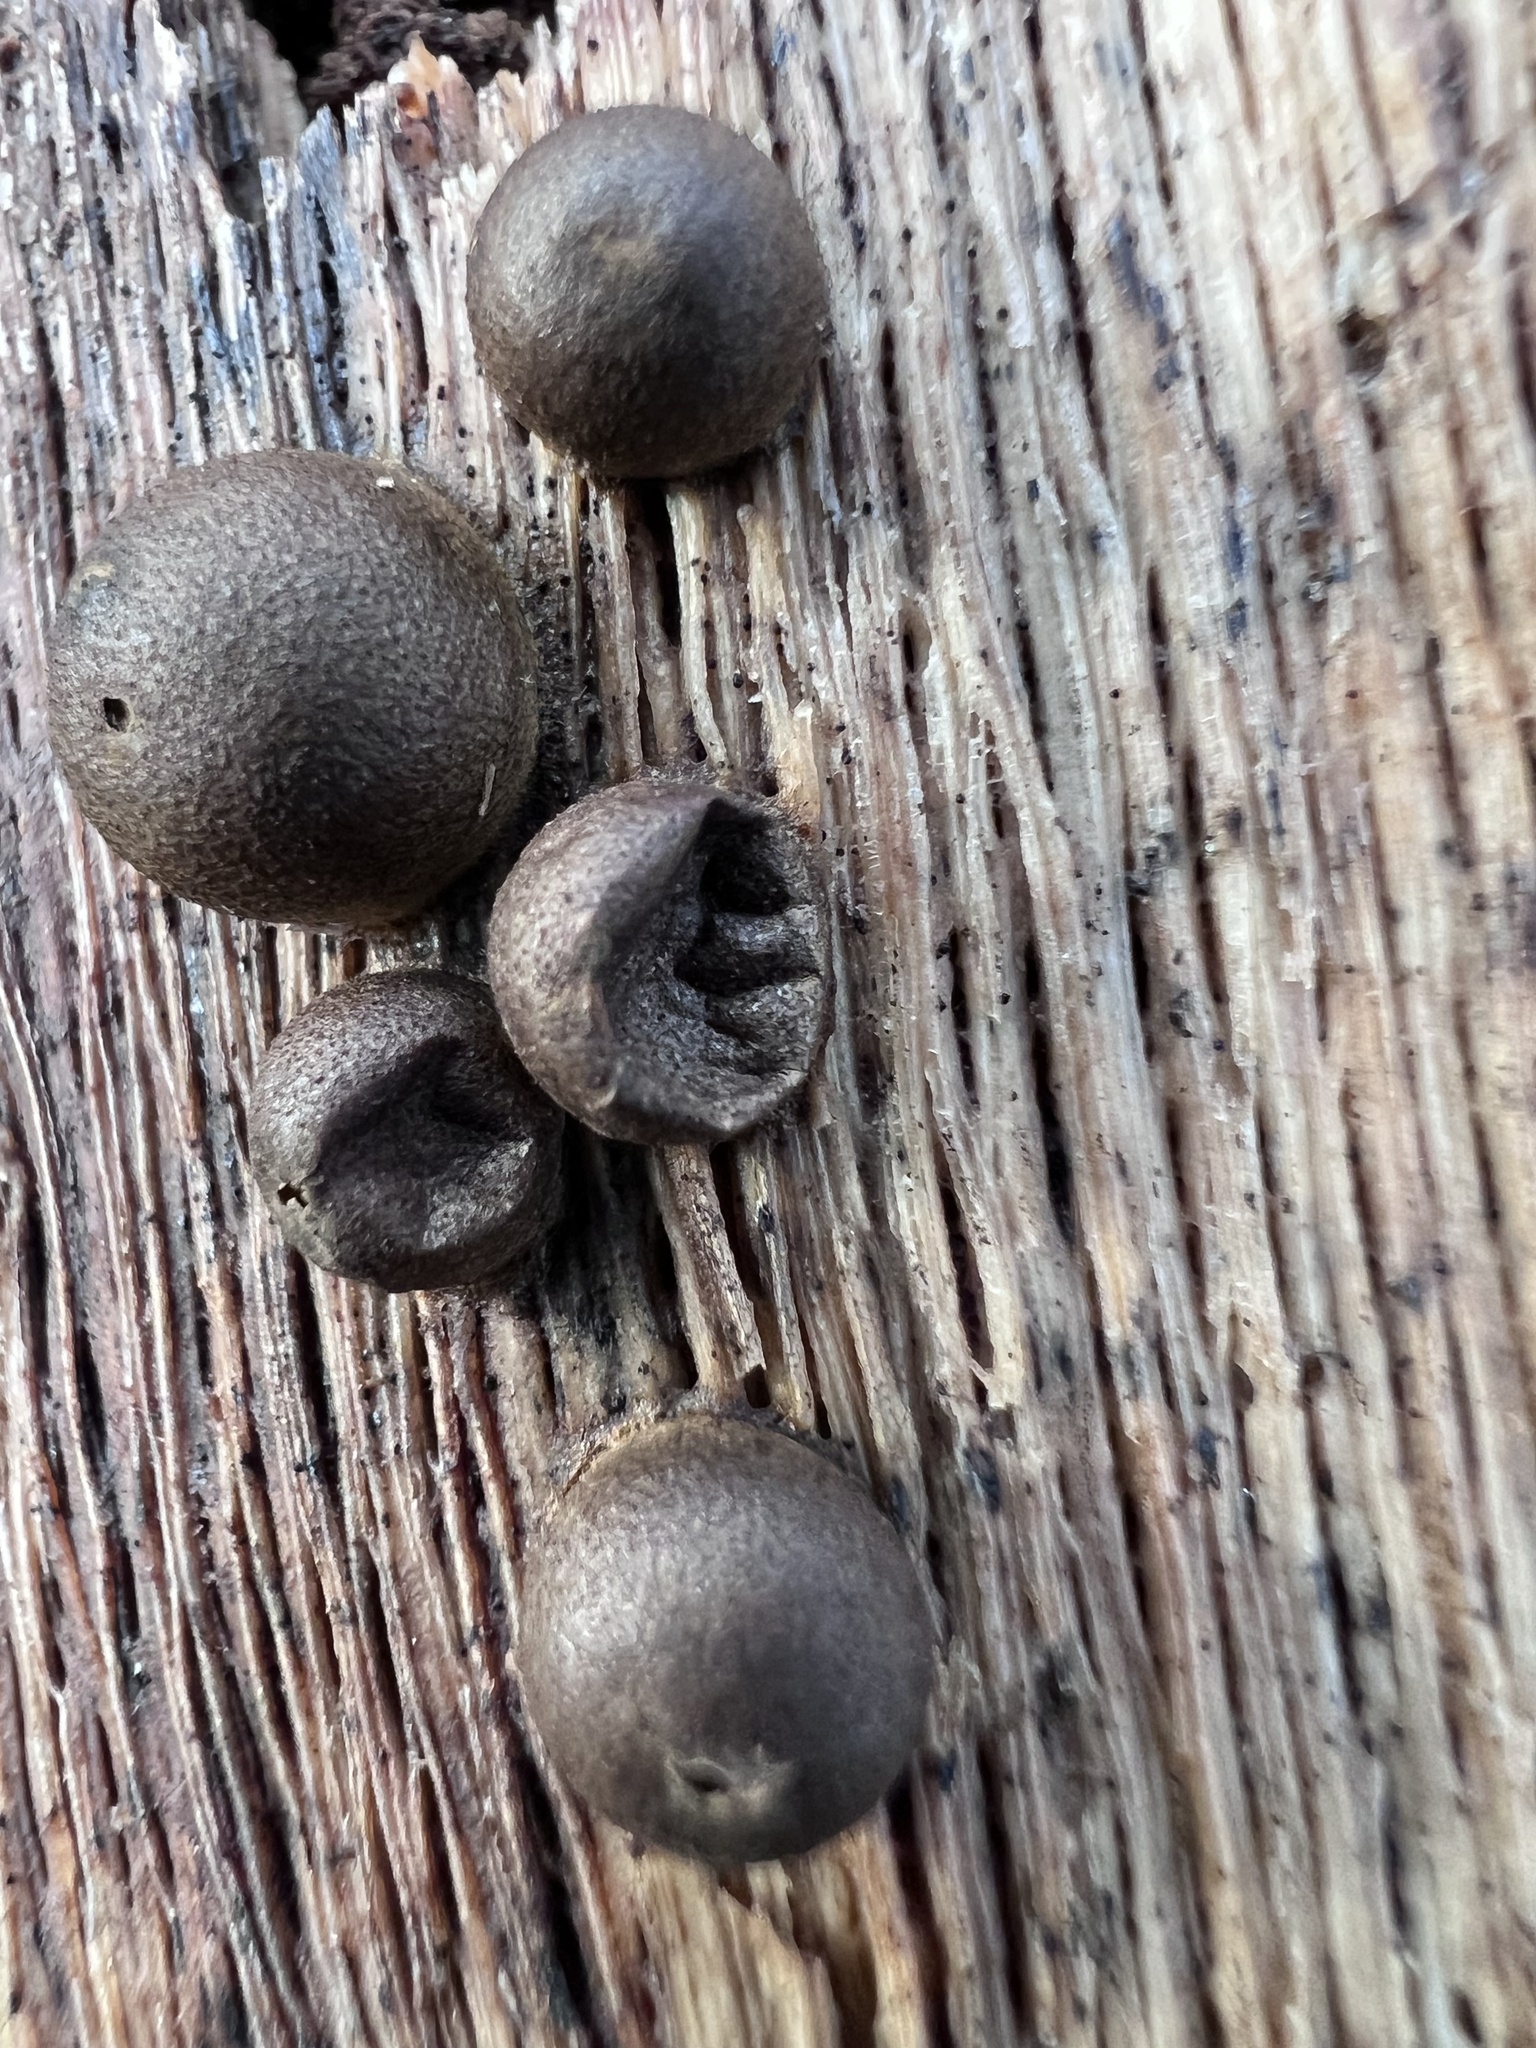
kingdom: Protozoa
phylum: Mycetozoa
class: Myxomycetes
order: Cribrariales
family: Tubiferaceae
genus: Lycogala
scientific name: Lycogala epidendrum
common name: Wolf's milk
